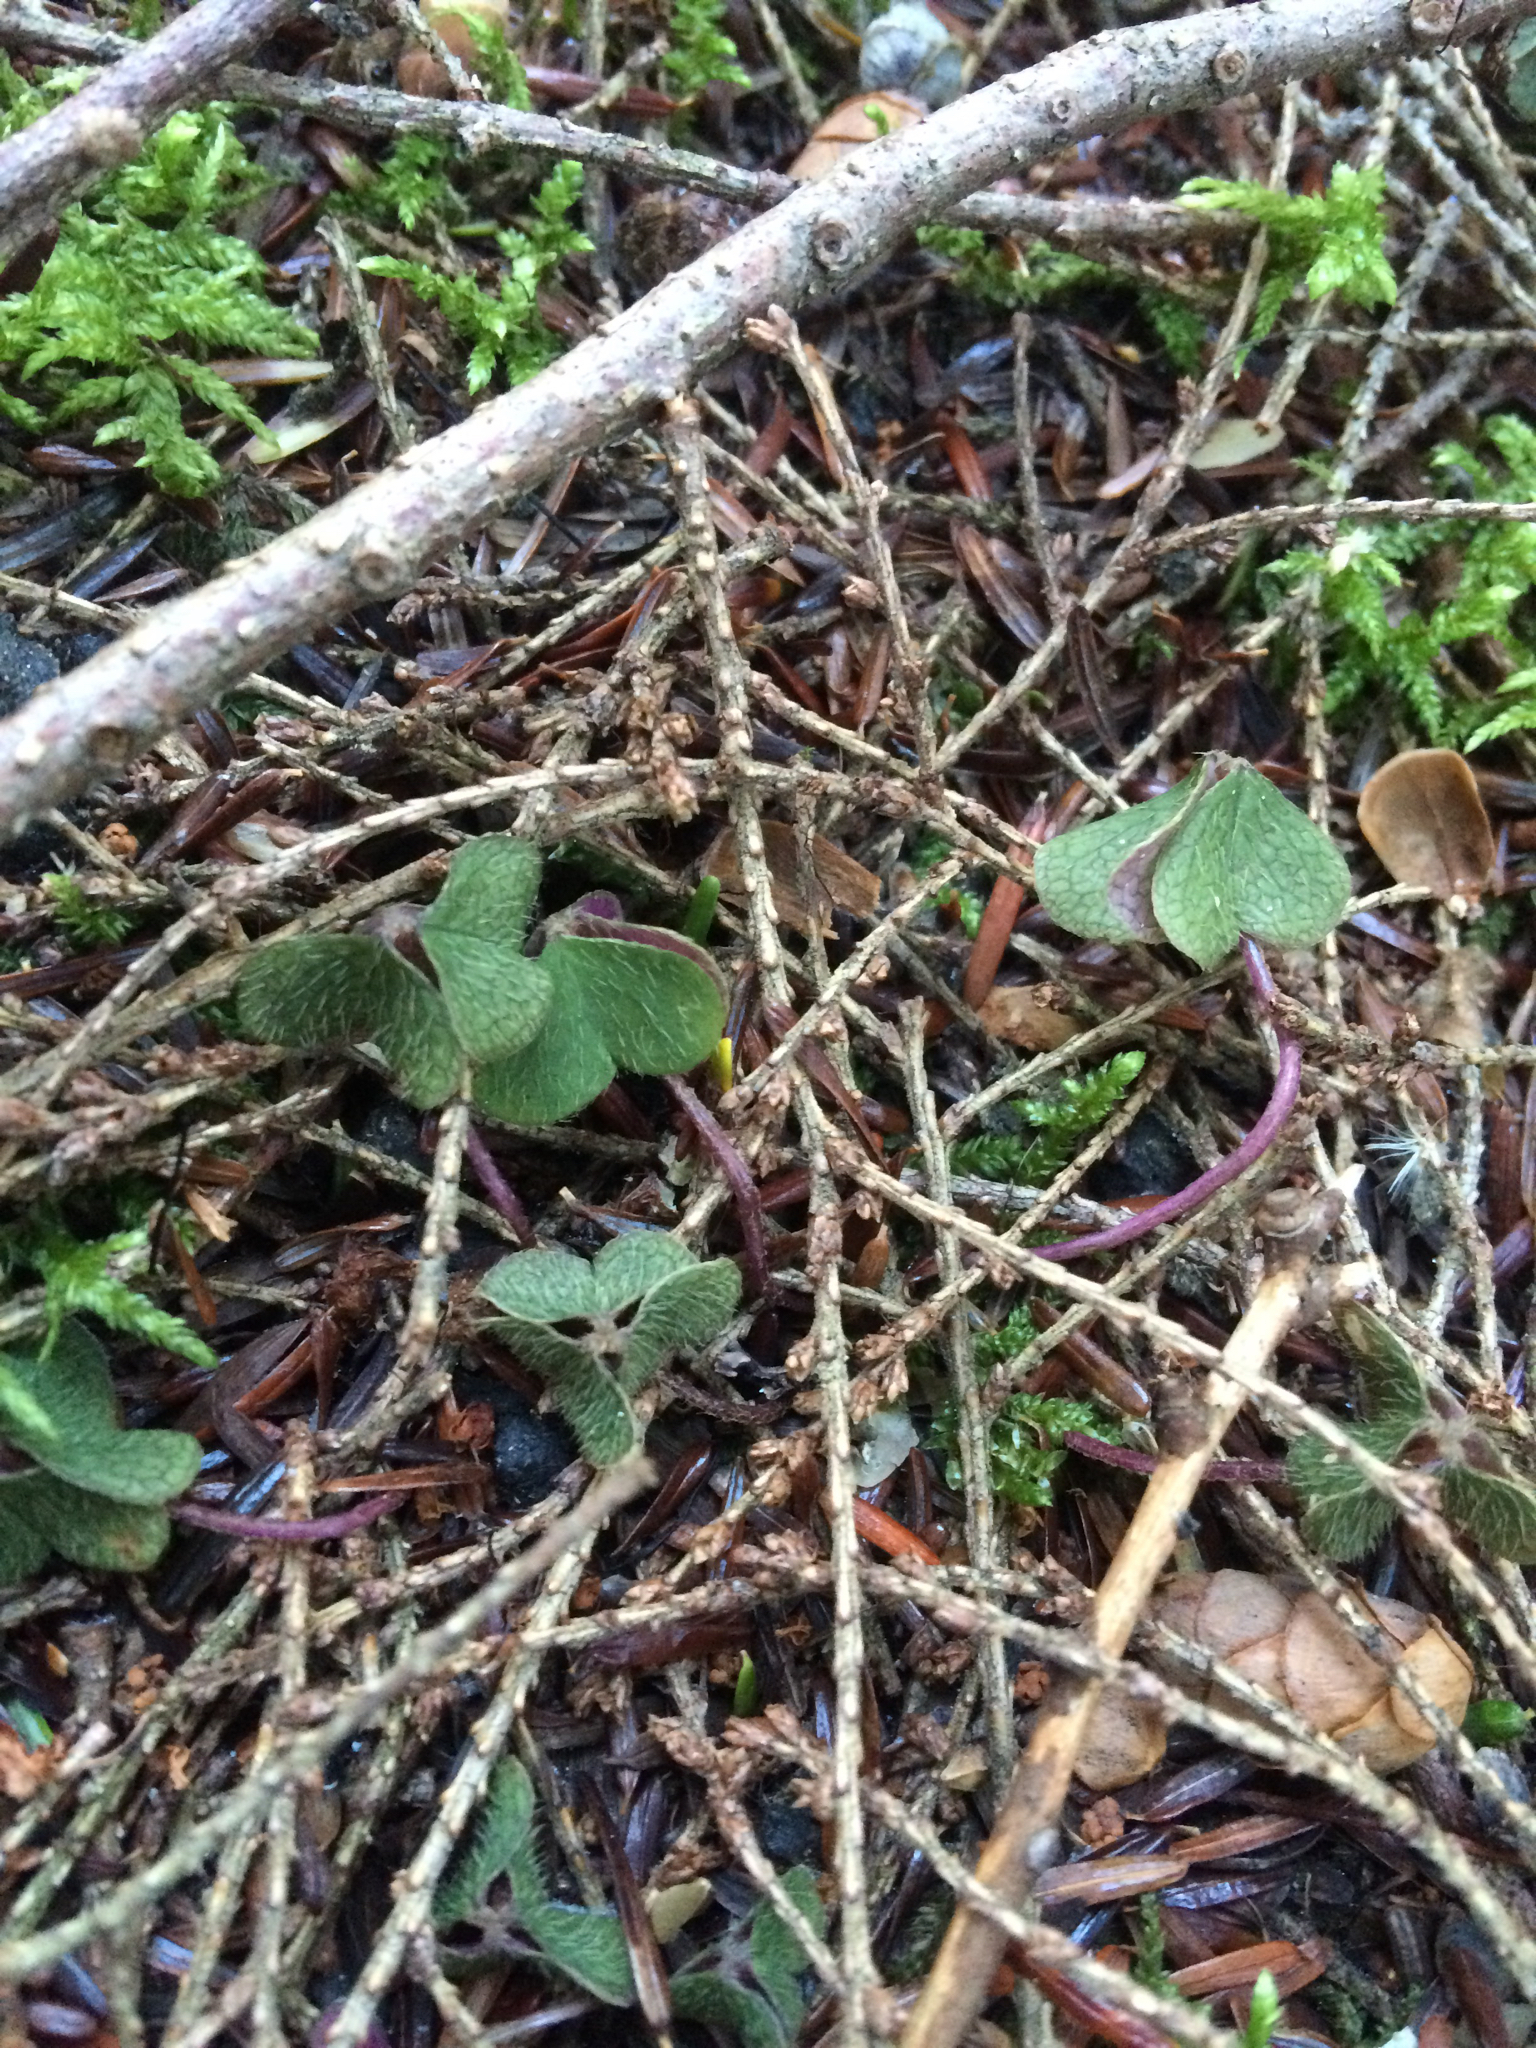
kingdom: Plantae
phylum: Tracheophyta
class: Magnoliopsida
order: Oxalidales
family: Oxalidaceae
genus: Oxalis
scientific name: Oxalis montana
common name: American wood-sorrel
